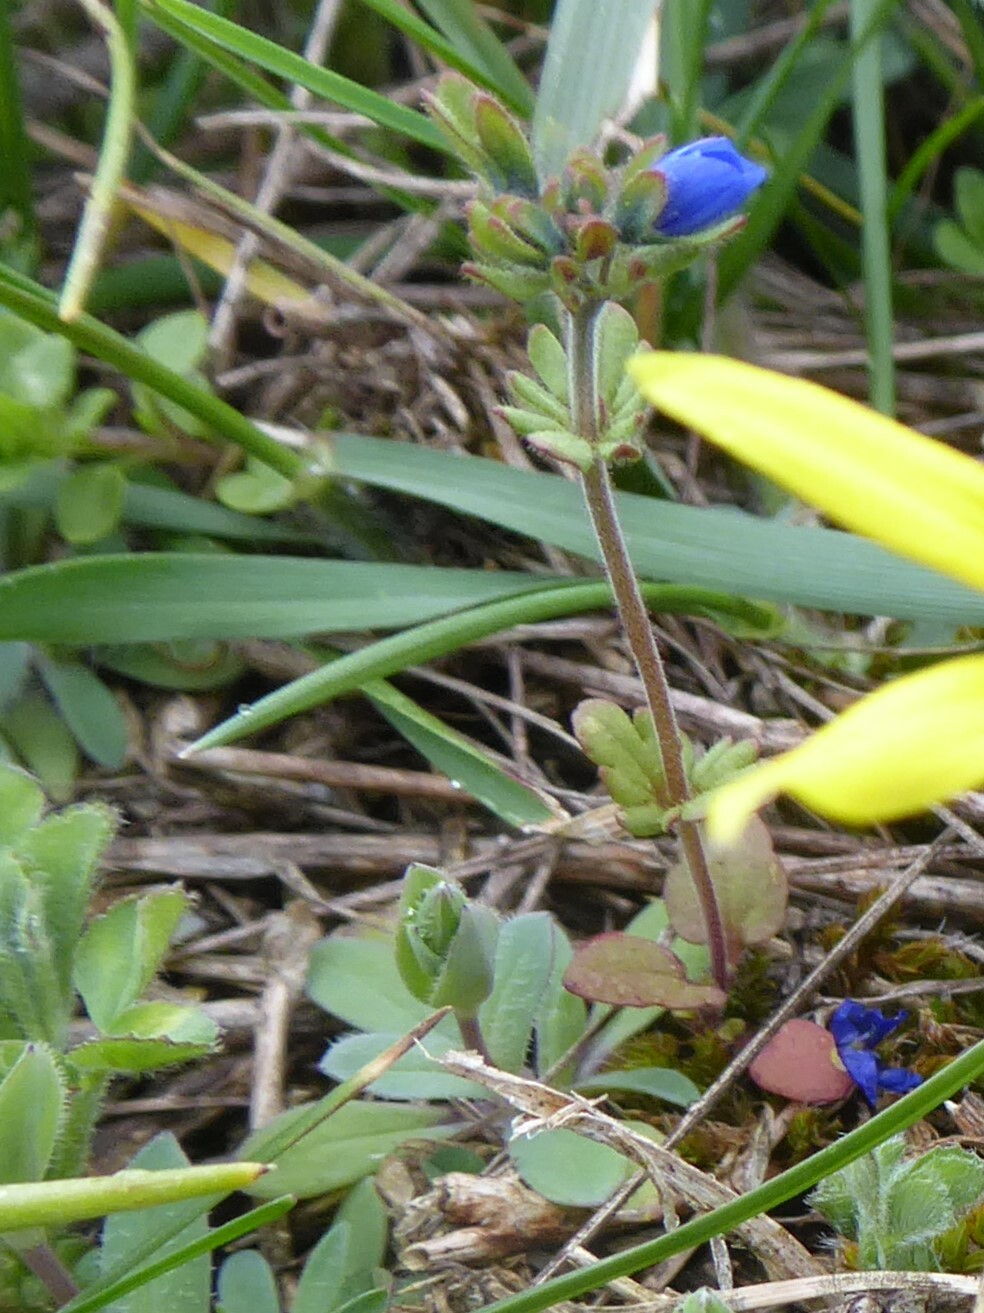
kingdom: Plantae
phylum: Tracheophyta
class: Magnoliopsida
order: Lamiales
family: Plantaginaceae
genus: Veronica
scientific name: Veronica triphyllos
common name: Fingered speedwell
